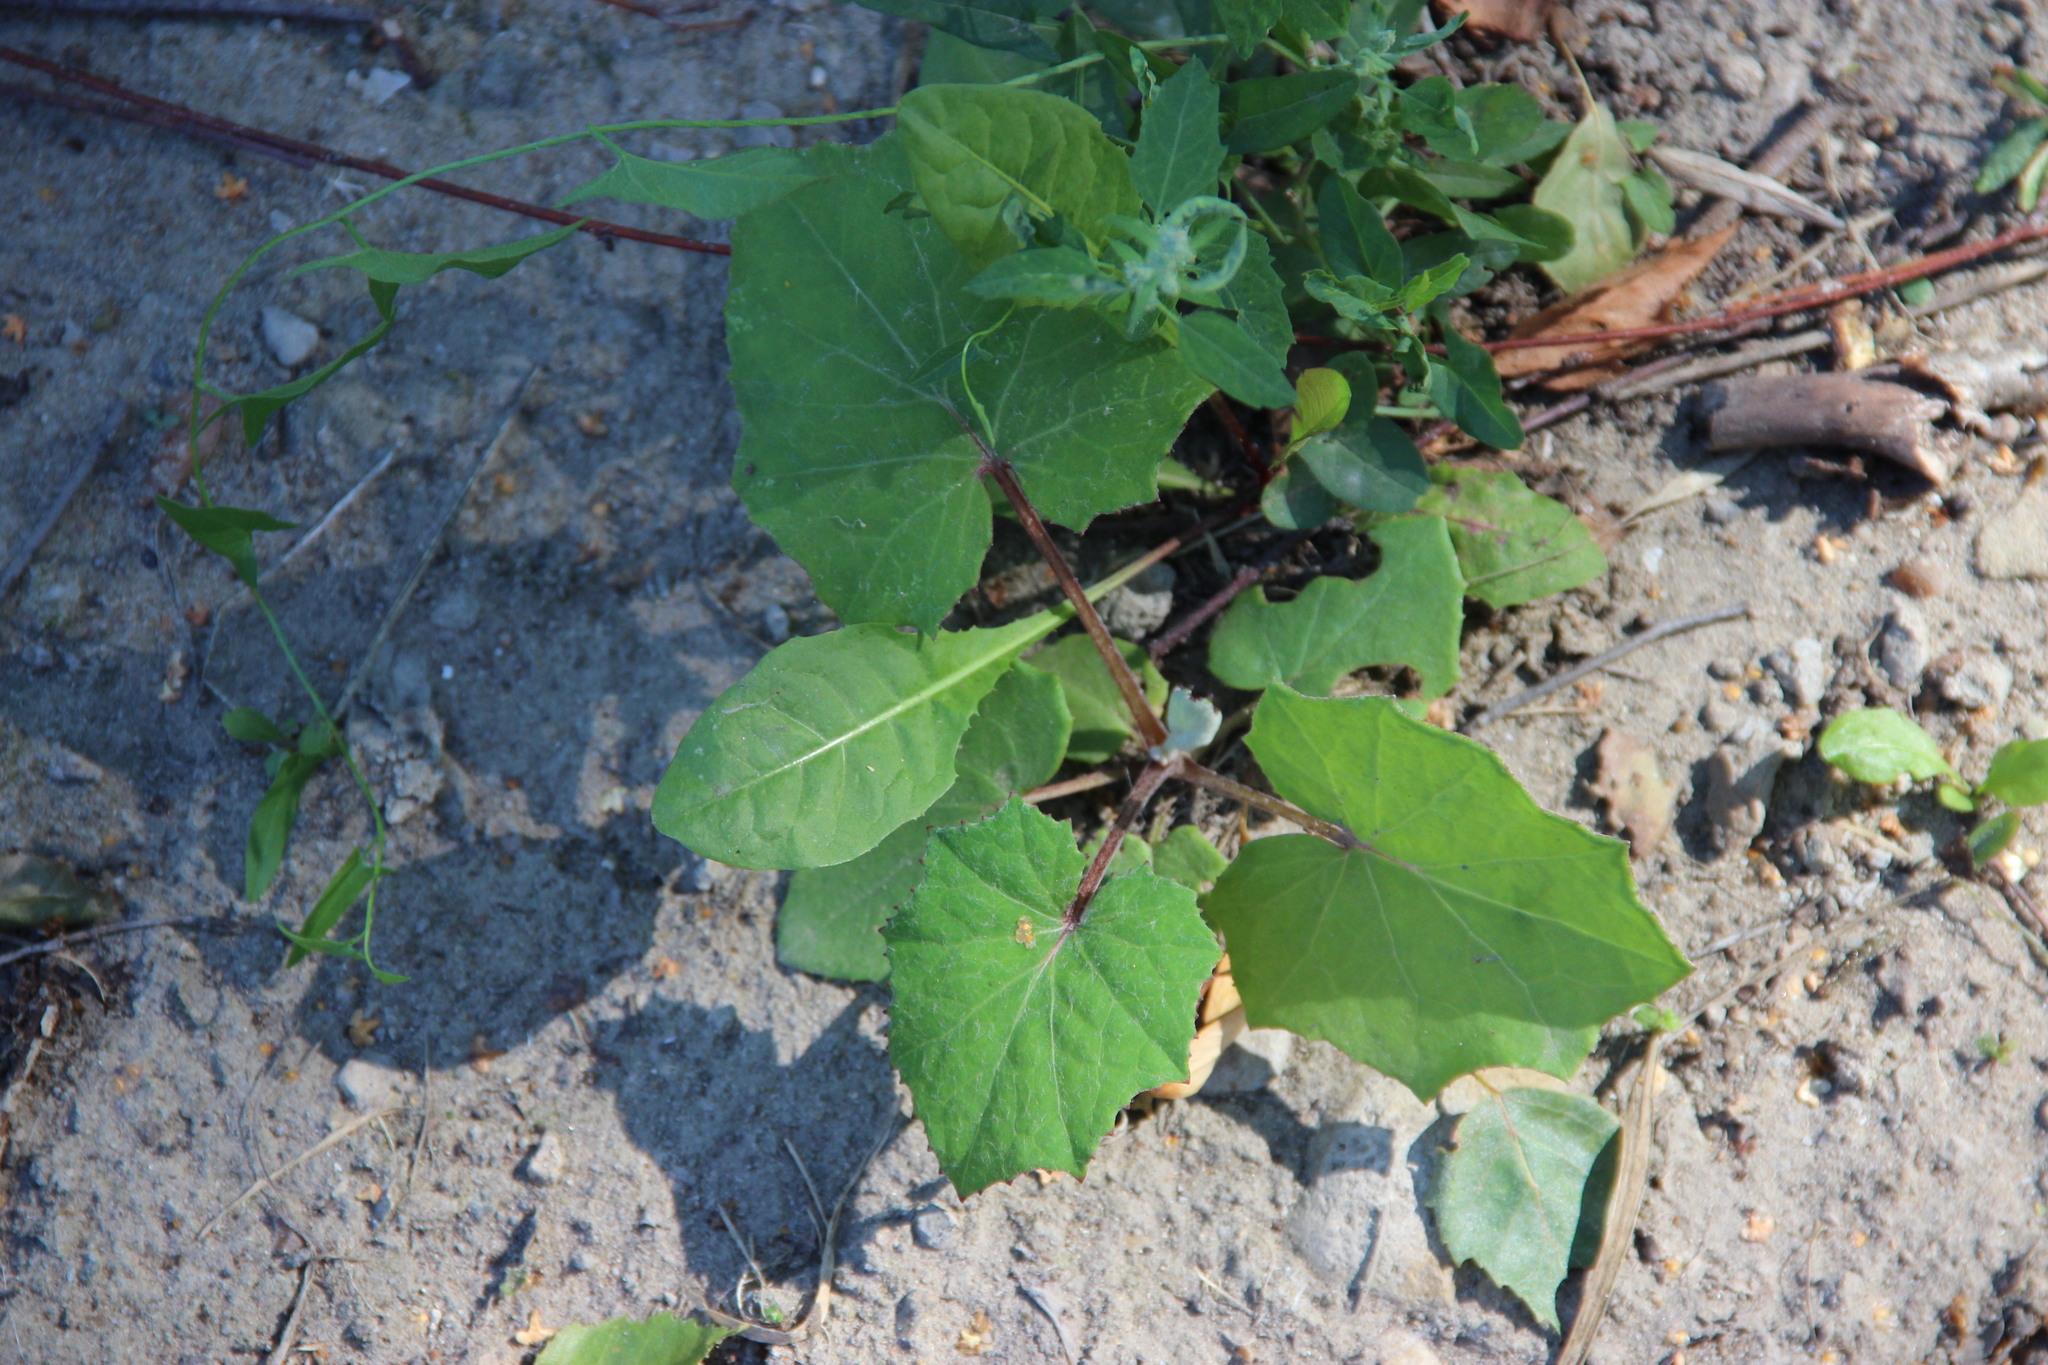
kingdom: Plantae
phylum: Tracheophyta
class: Magnoliopsida
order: Asterales
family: Asteraceae
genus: Tussilago
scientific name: Tussilago farfara
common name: Coltsfoot
